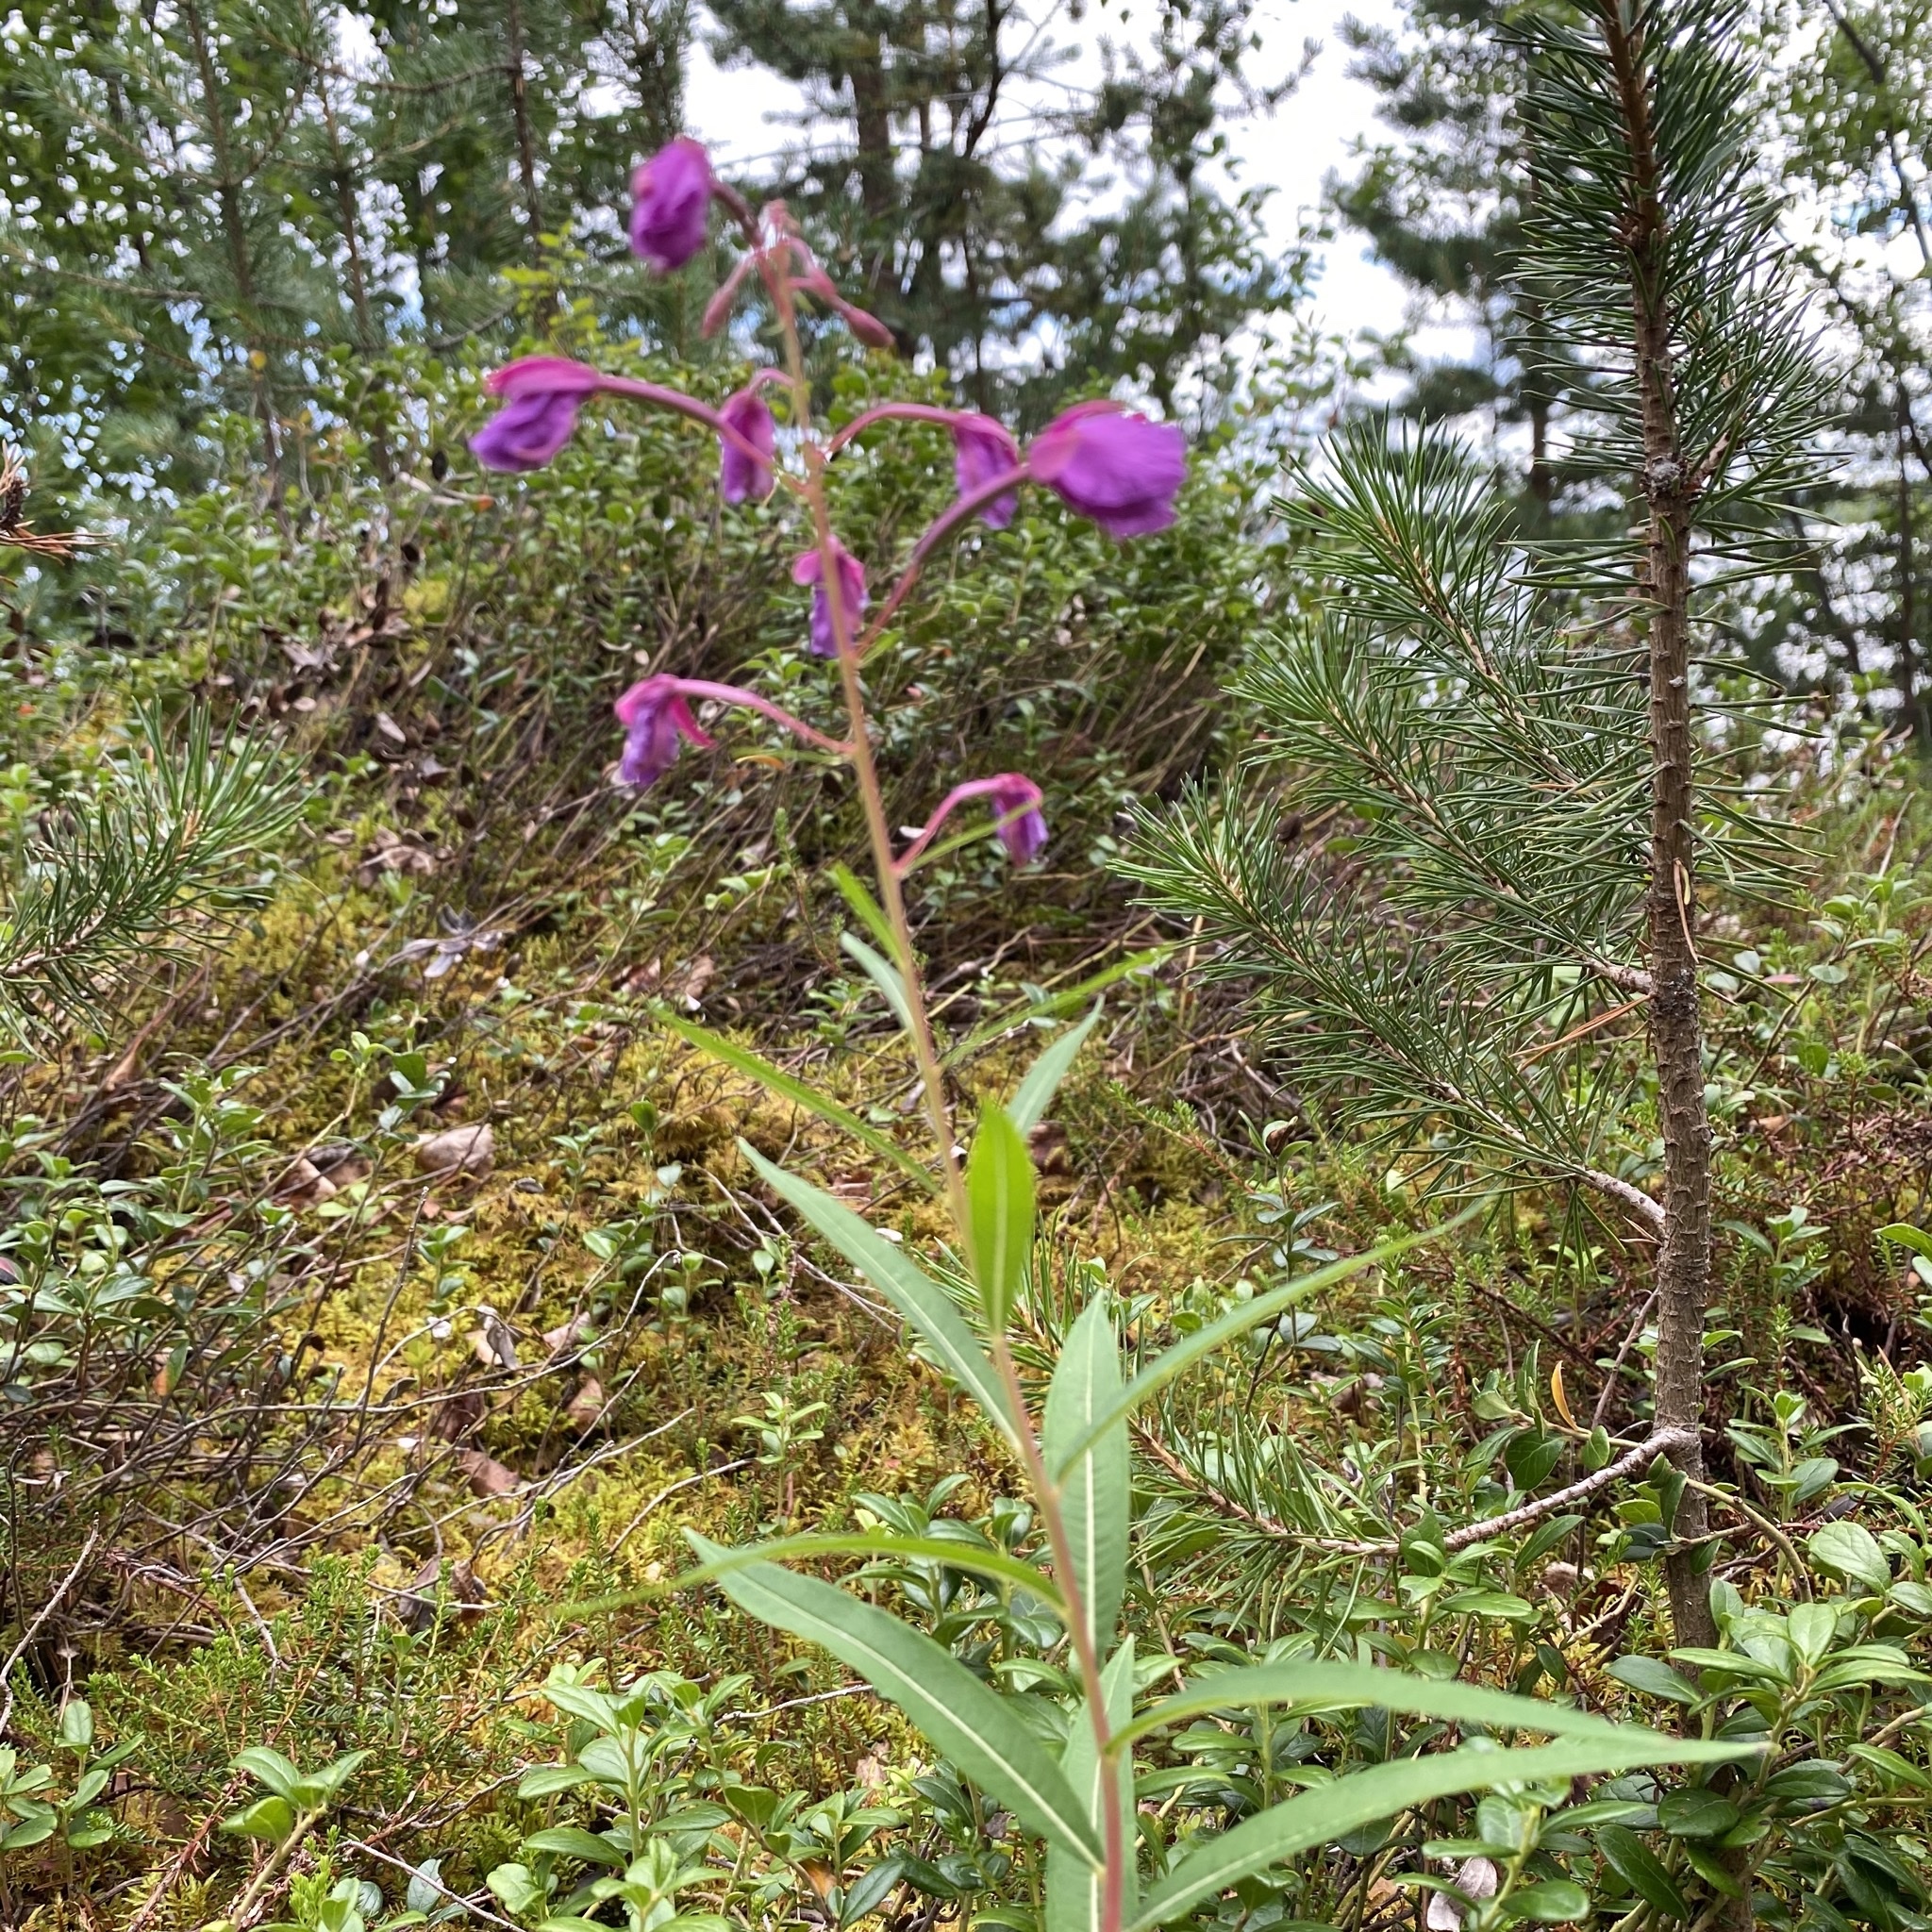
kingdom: Plantae
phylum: Tracheophyta
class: Magnoliopsida
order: Myrtales
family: Onagraceae
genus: Chamaenerion
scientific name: Chamaenerion angustifolium
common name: Fireweed
